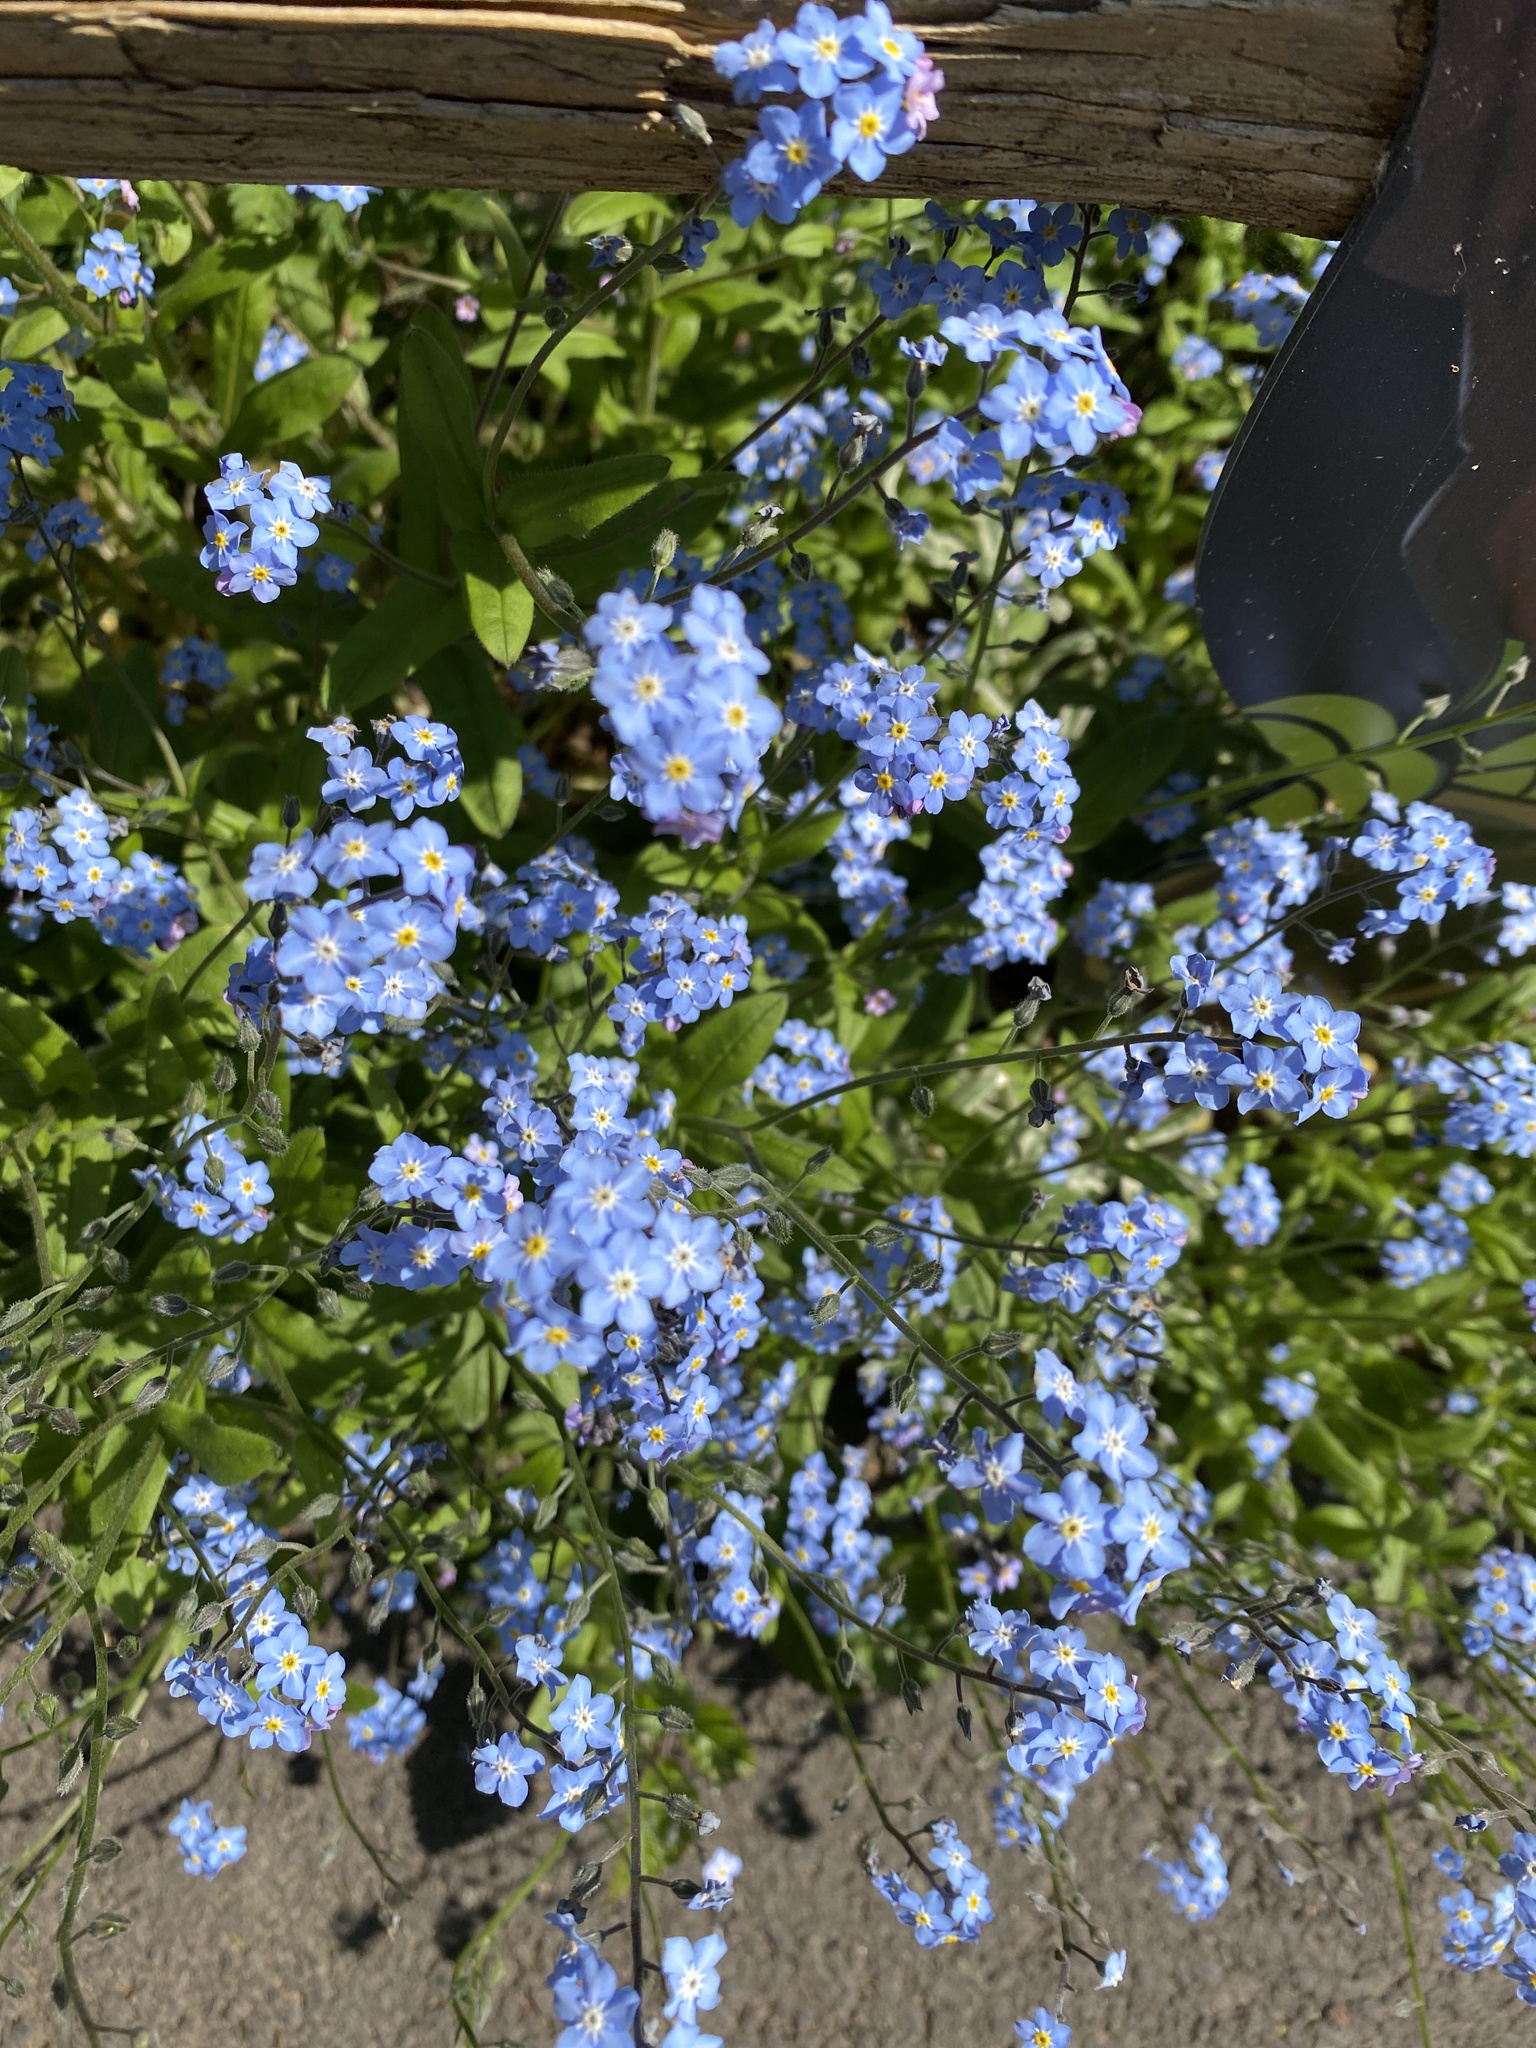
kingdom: Plantae
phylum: Tracheophyta
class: Magnoliopsida
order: Boraginales
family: Boraginaceae
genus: Myosotis
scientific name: Myosotis sylvatica
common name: Wood forget-me-not
